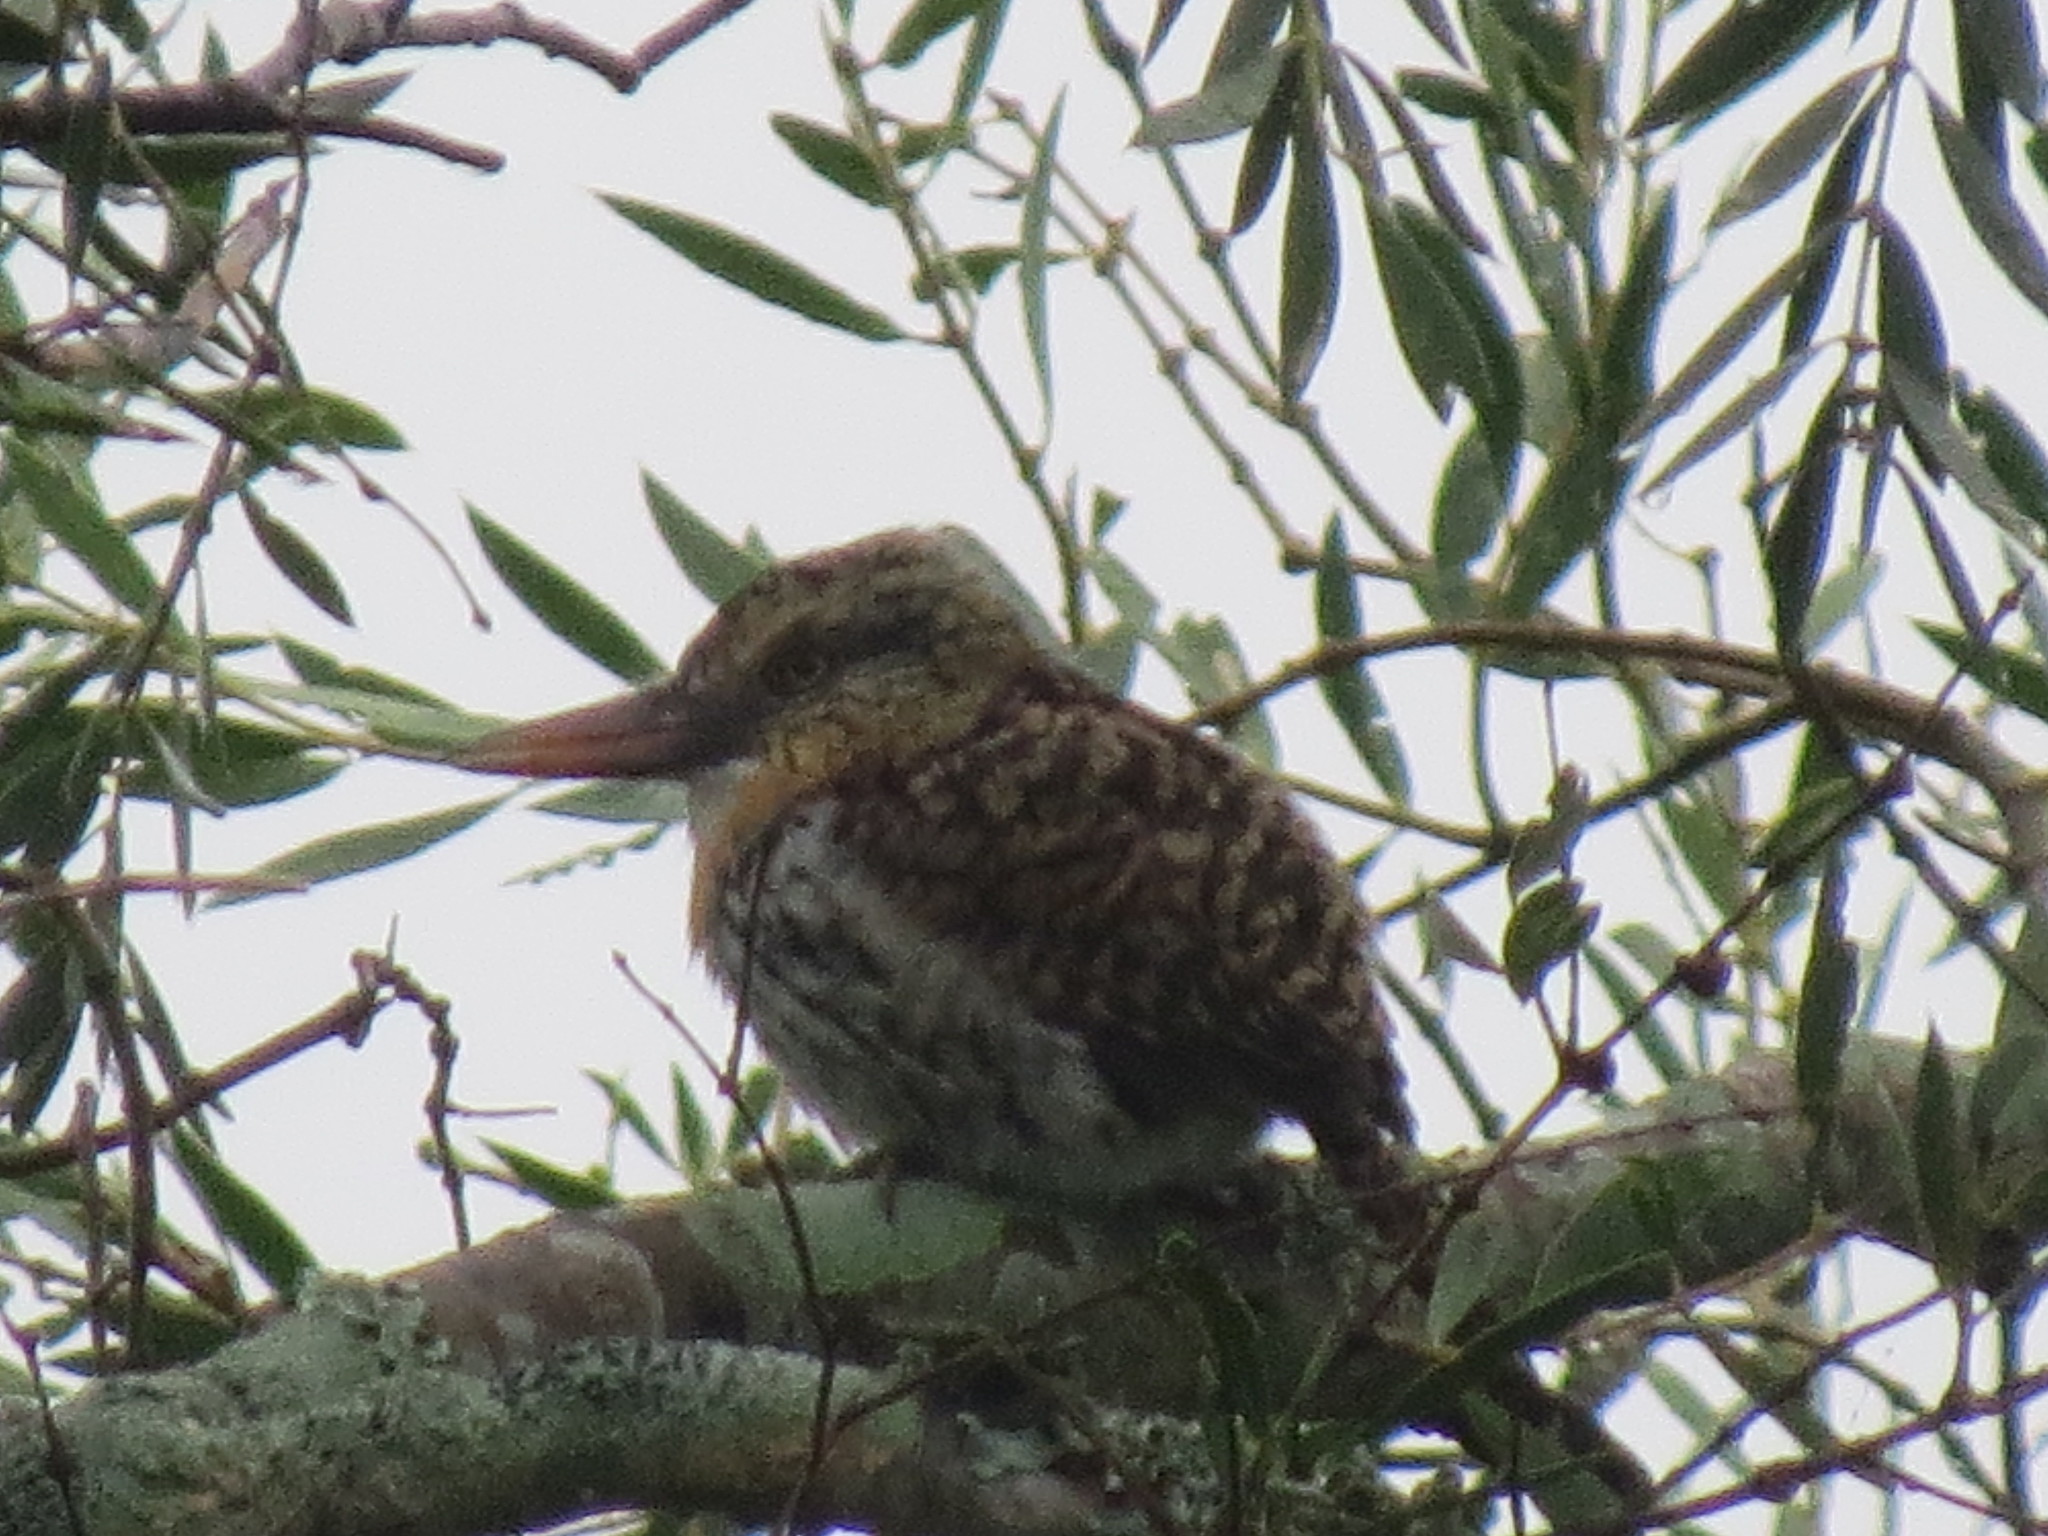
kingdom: Animalia
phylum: Chordata
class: Aves
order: Piciformes
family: Bucconidae
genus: Nystalus
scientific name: Nystalus maculatus
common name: Caatinga puffbird
